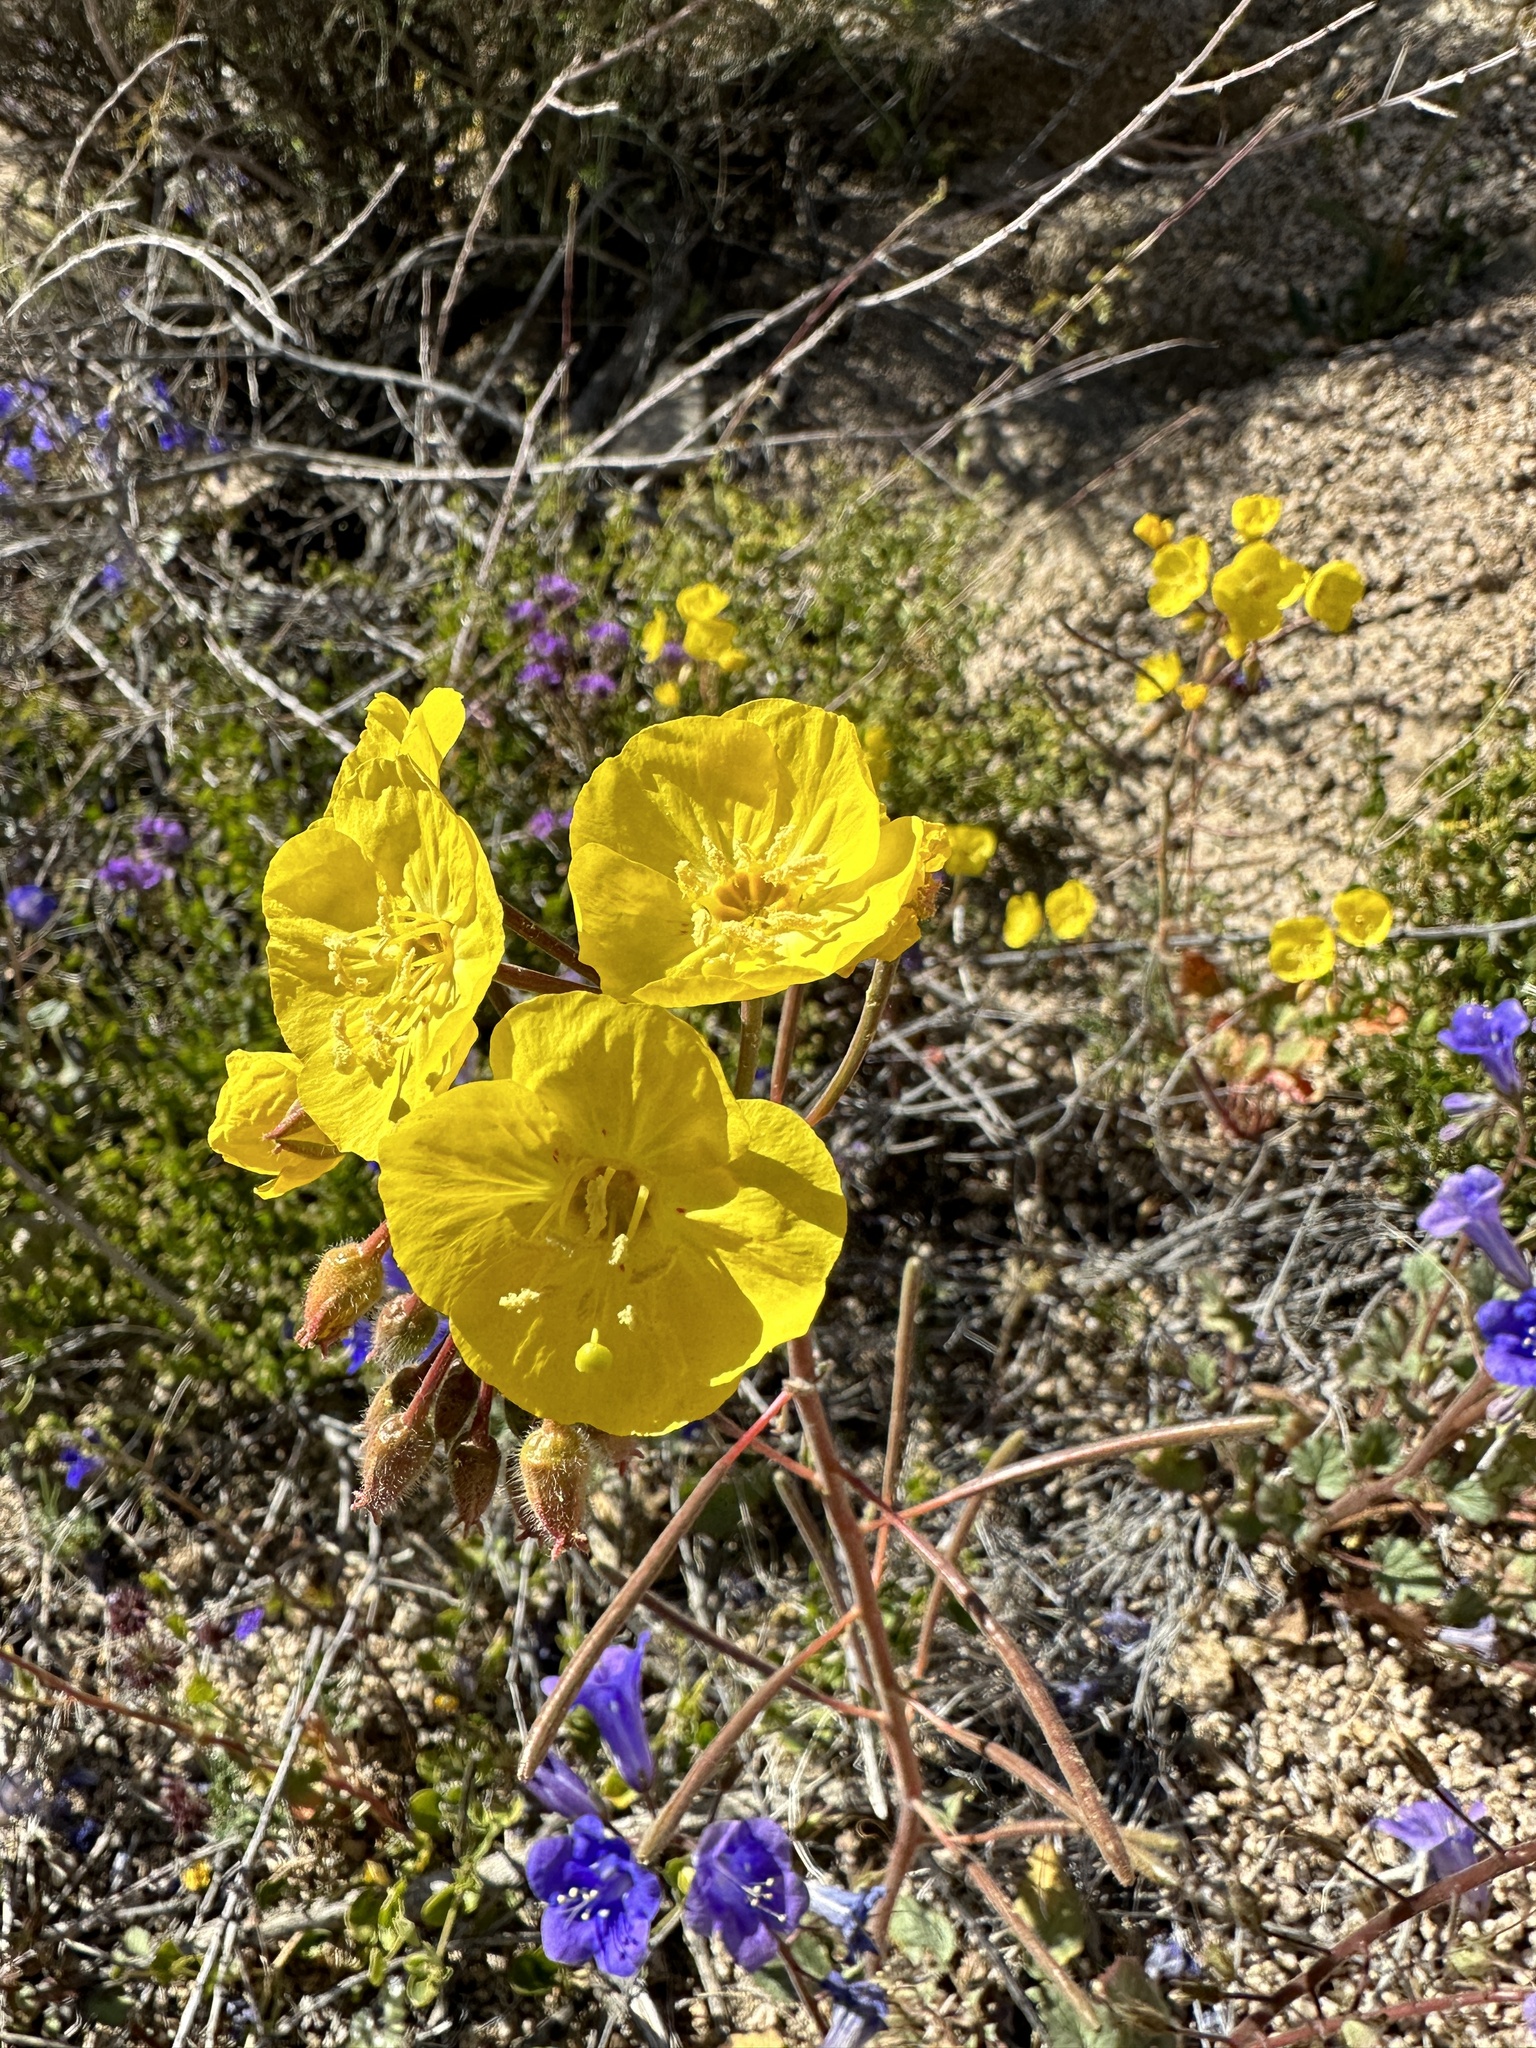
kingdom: Plantae
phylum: Tracheophyta
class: Magnoliopsida
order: Myrtales
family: Onagraceae
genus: Chylismia
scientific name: Chylismia brevipes
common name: Yellow cups
